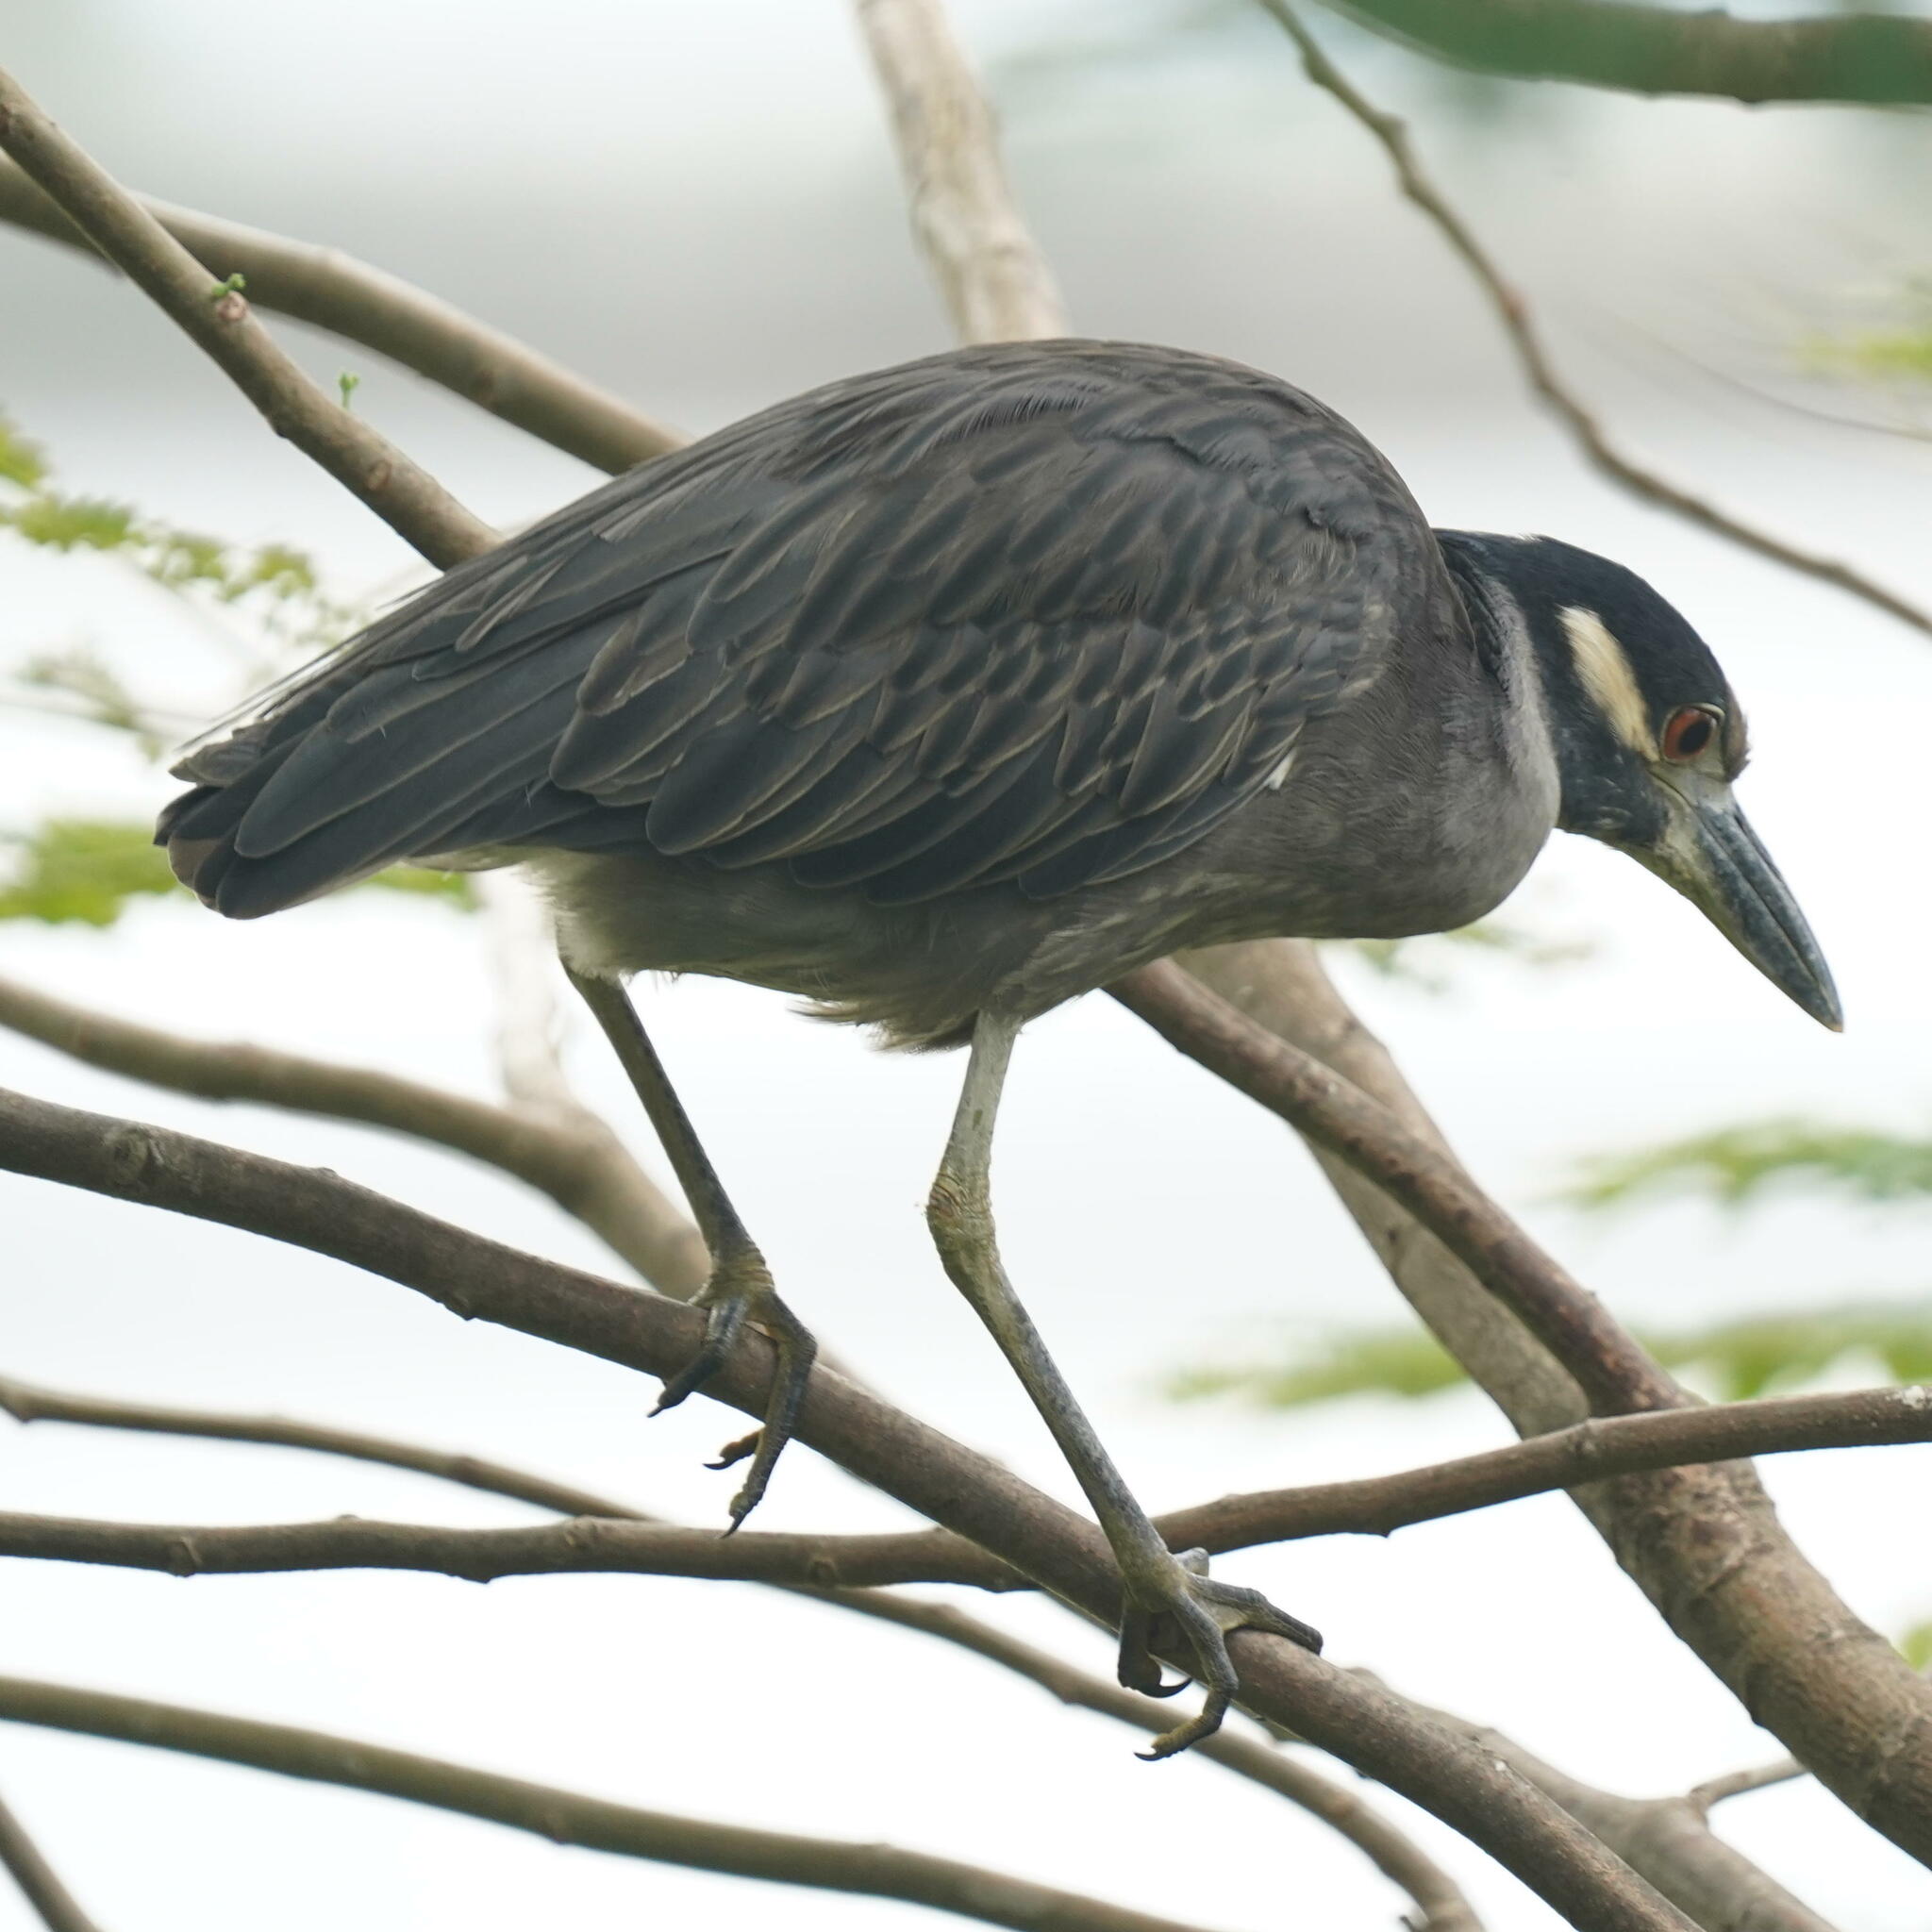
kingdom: Animalia
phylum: Chordata
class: Aves
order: Pelecaniformes
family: Ardeidae
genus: Nyctanassa
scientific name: Nyctanassa violacea
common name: Yellow-crowned night heron
